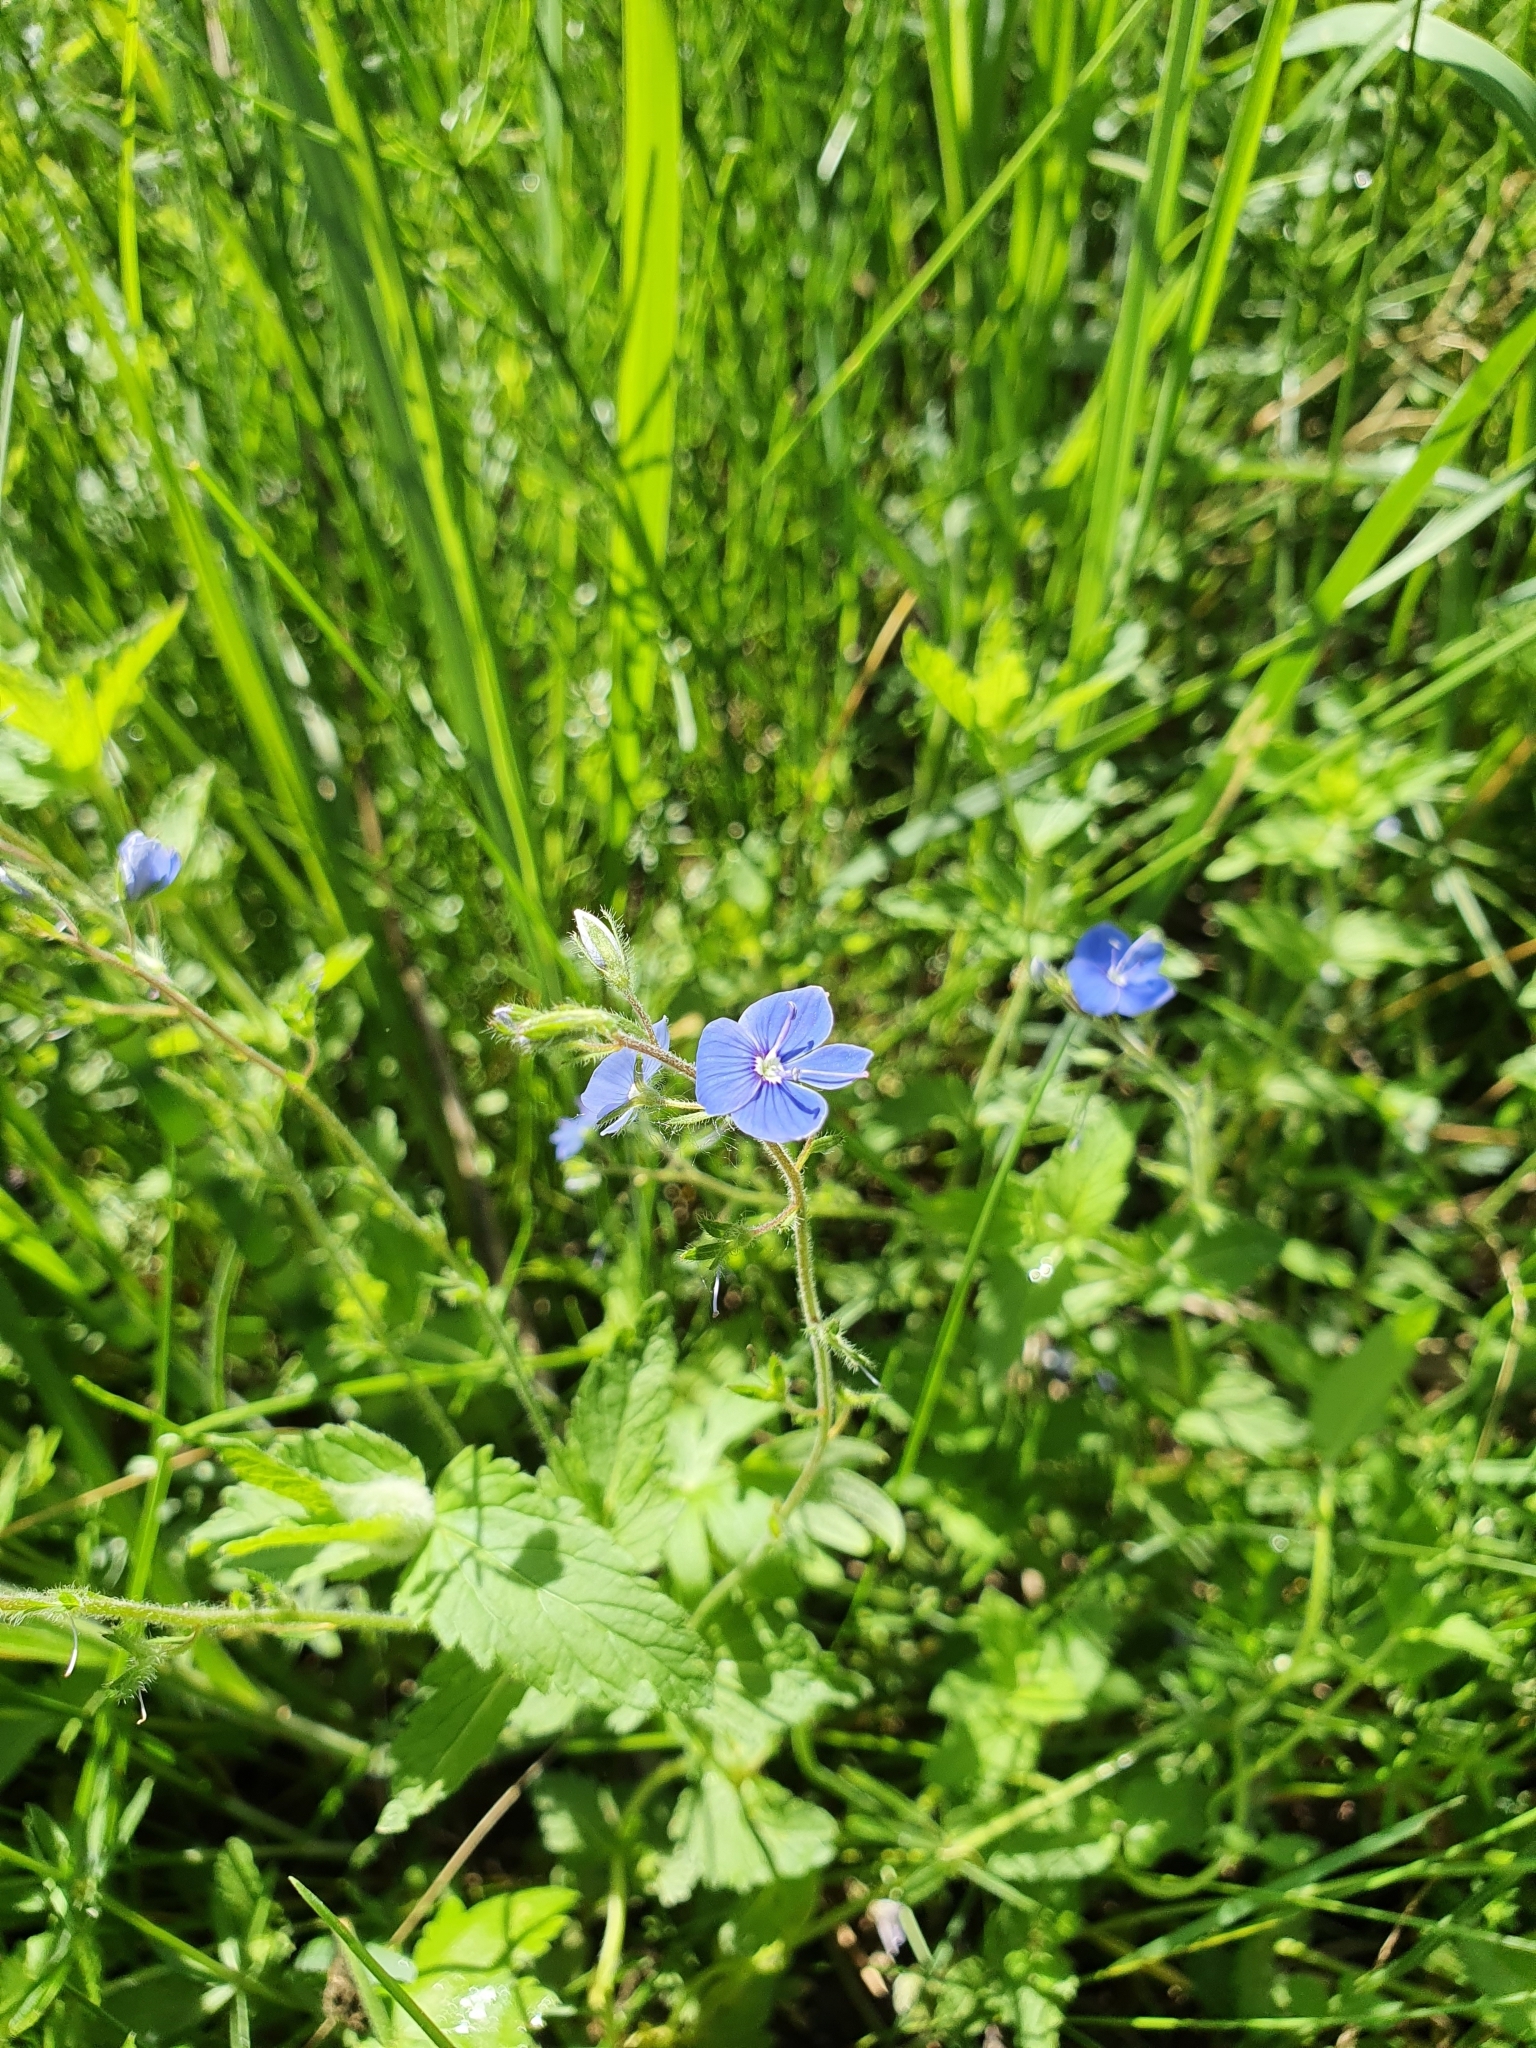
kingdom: Plantae
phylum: Tracheophyta
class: Magnoliopsida
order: Lamiales
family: Plantaginaceae
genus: Veronica
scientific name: Veronica chamaedrys
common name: Germander speedwell
